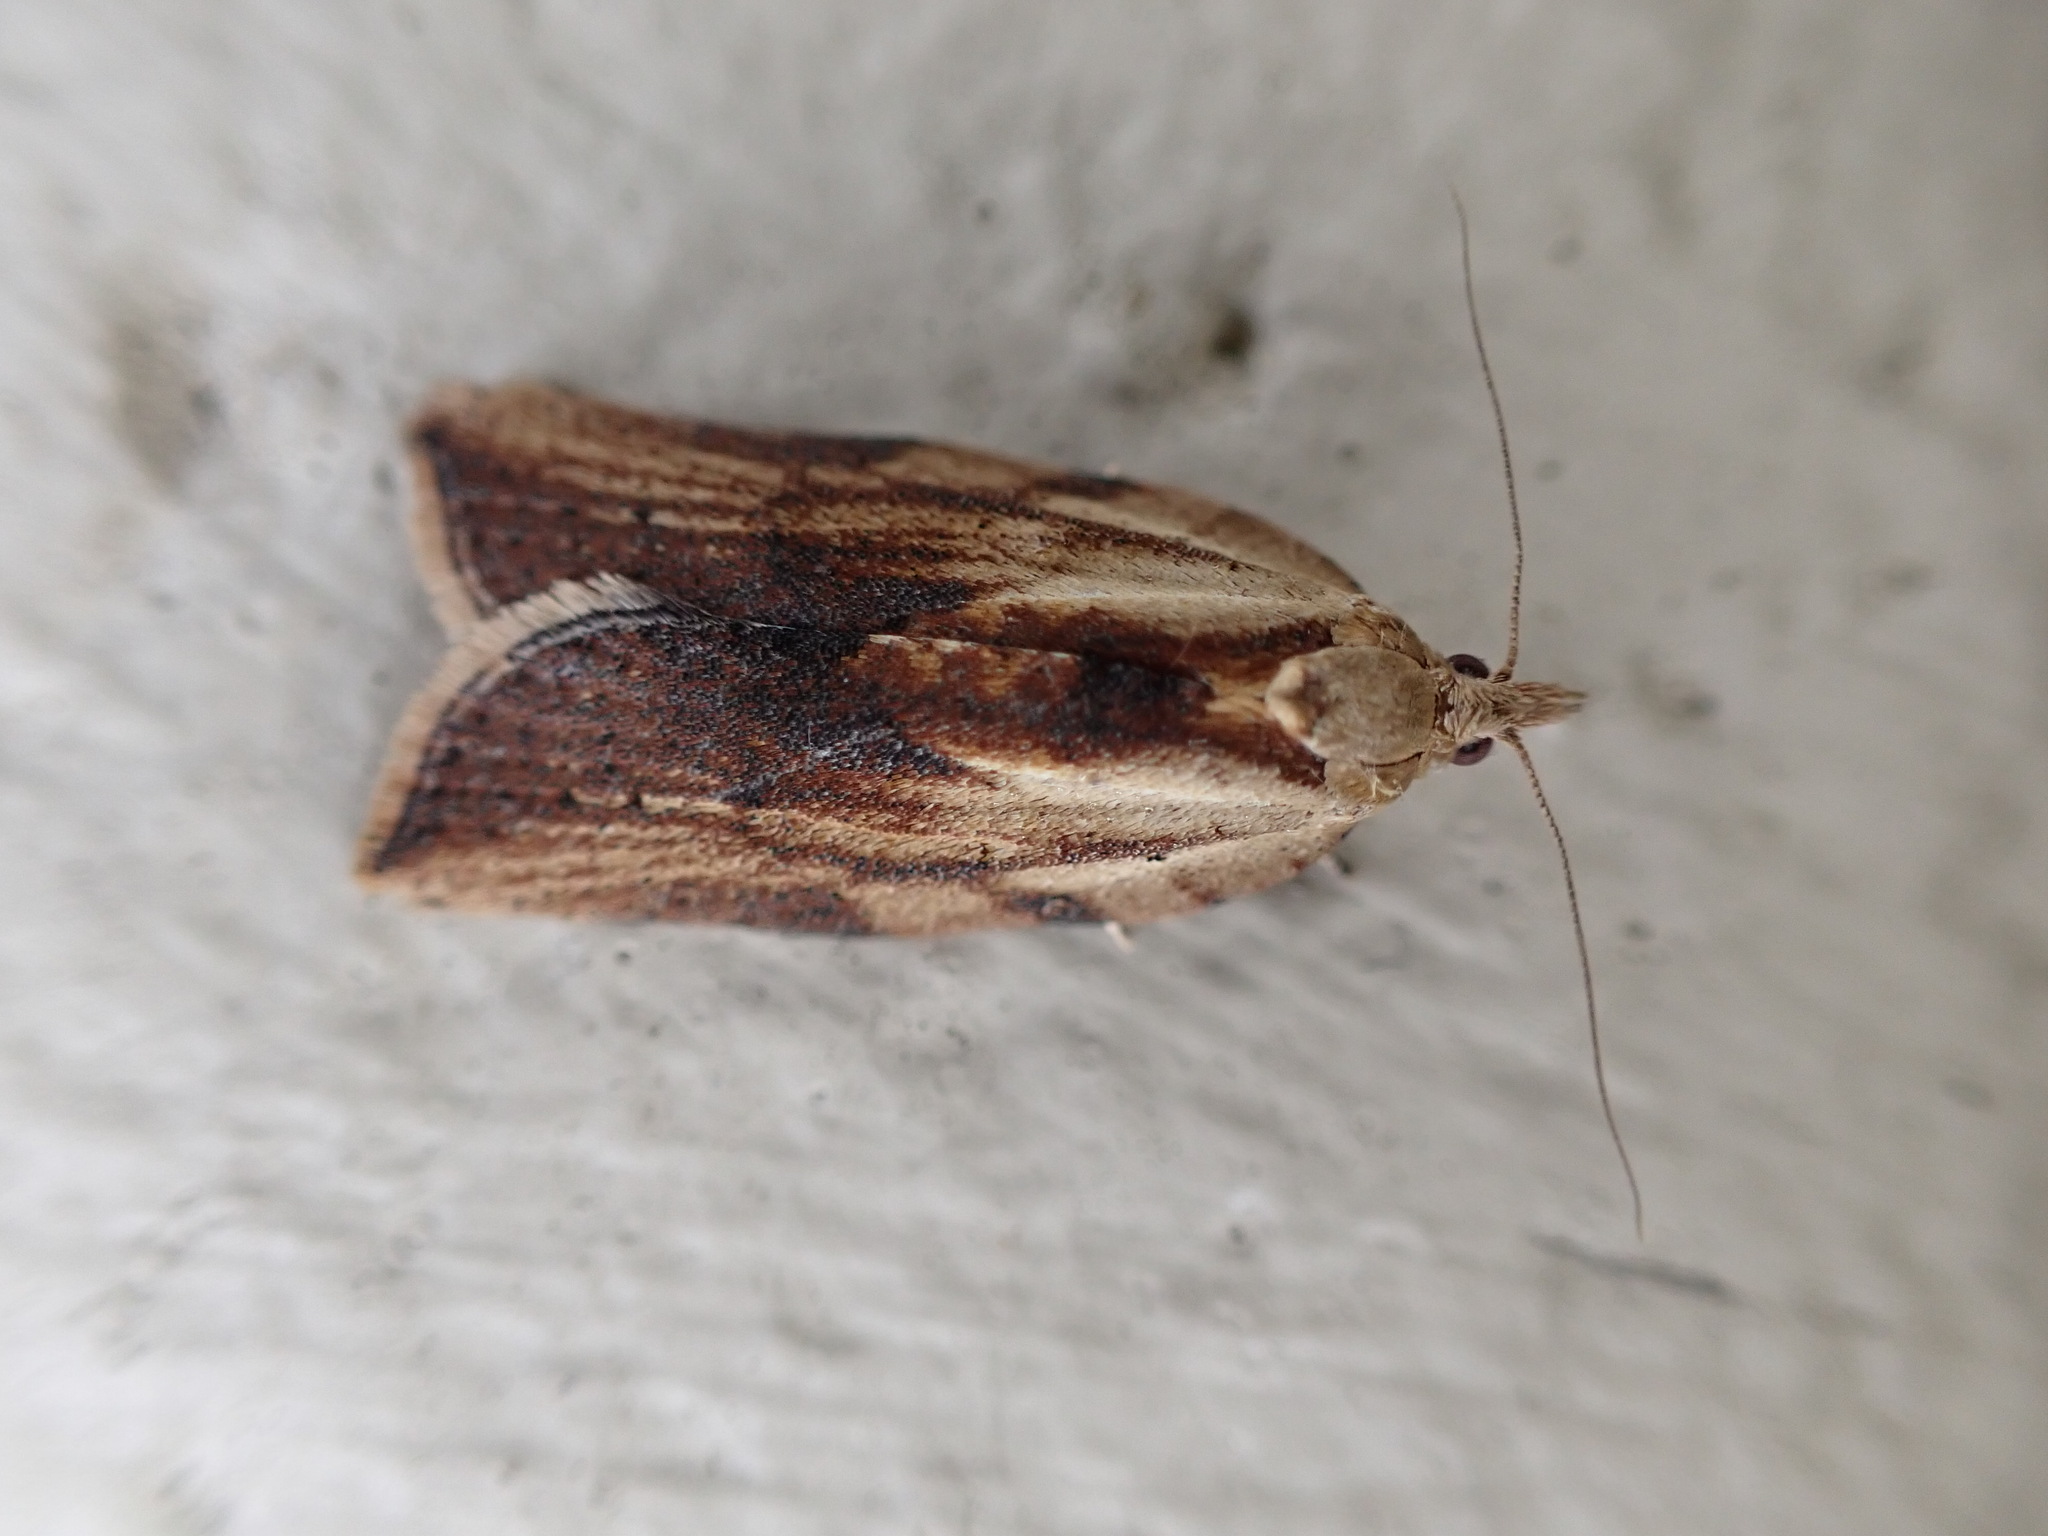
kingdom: Animalia
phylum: Arthropoda
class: Insecta
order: Lepidoptera
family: Tortricidae
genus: Epiphyas
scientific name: Epiphyas postvittana
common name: Light brown apple moth
